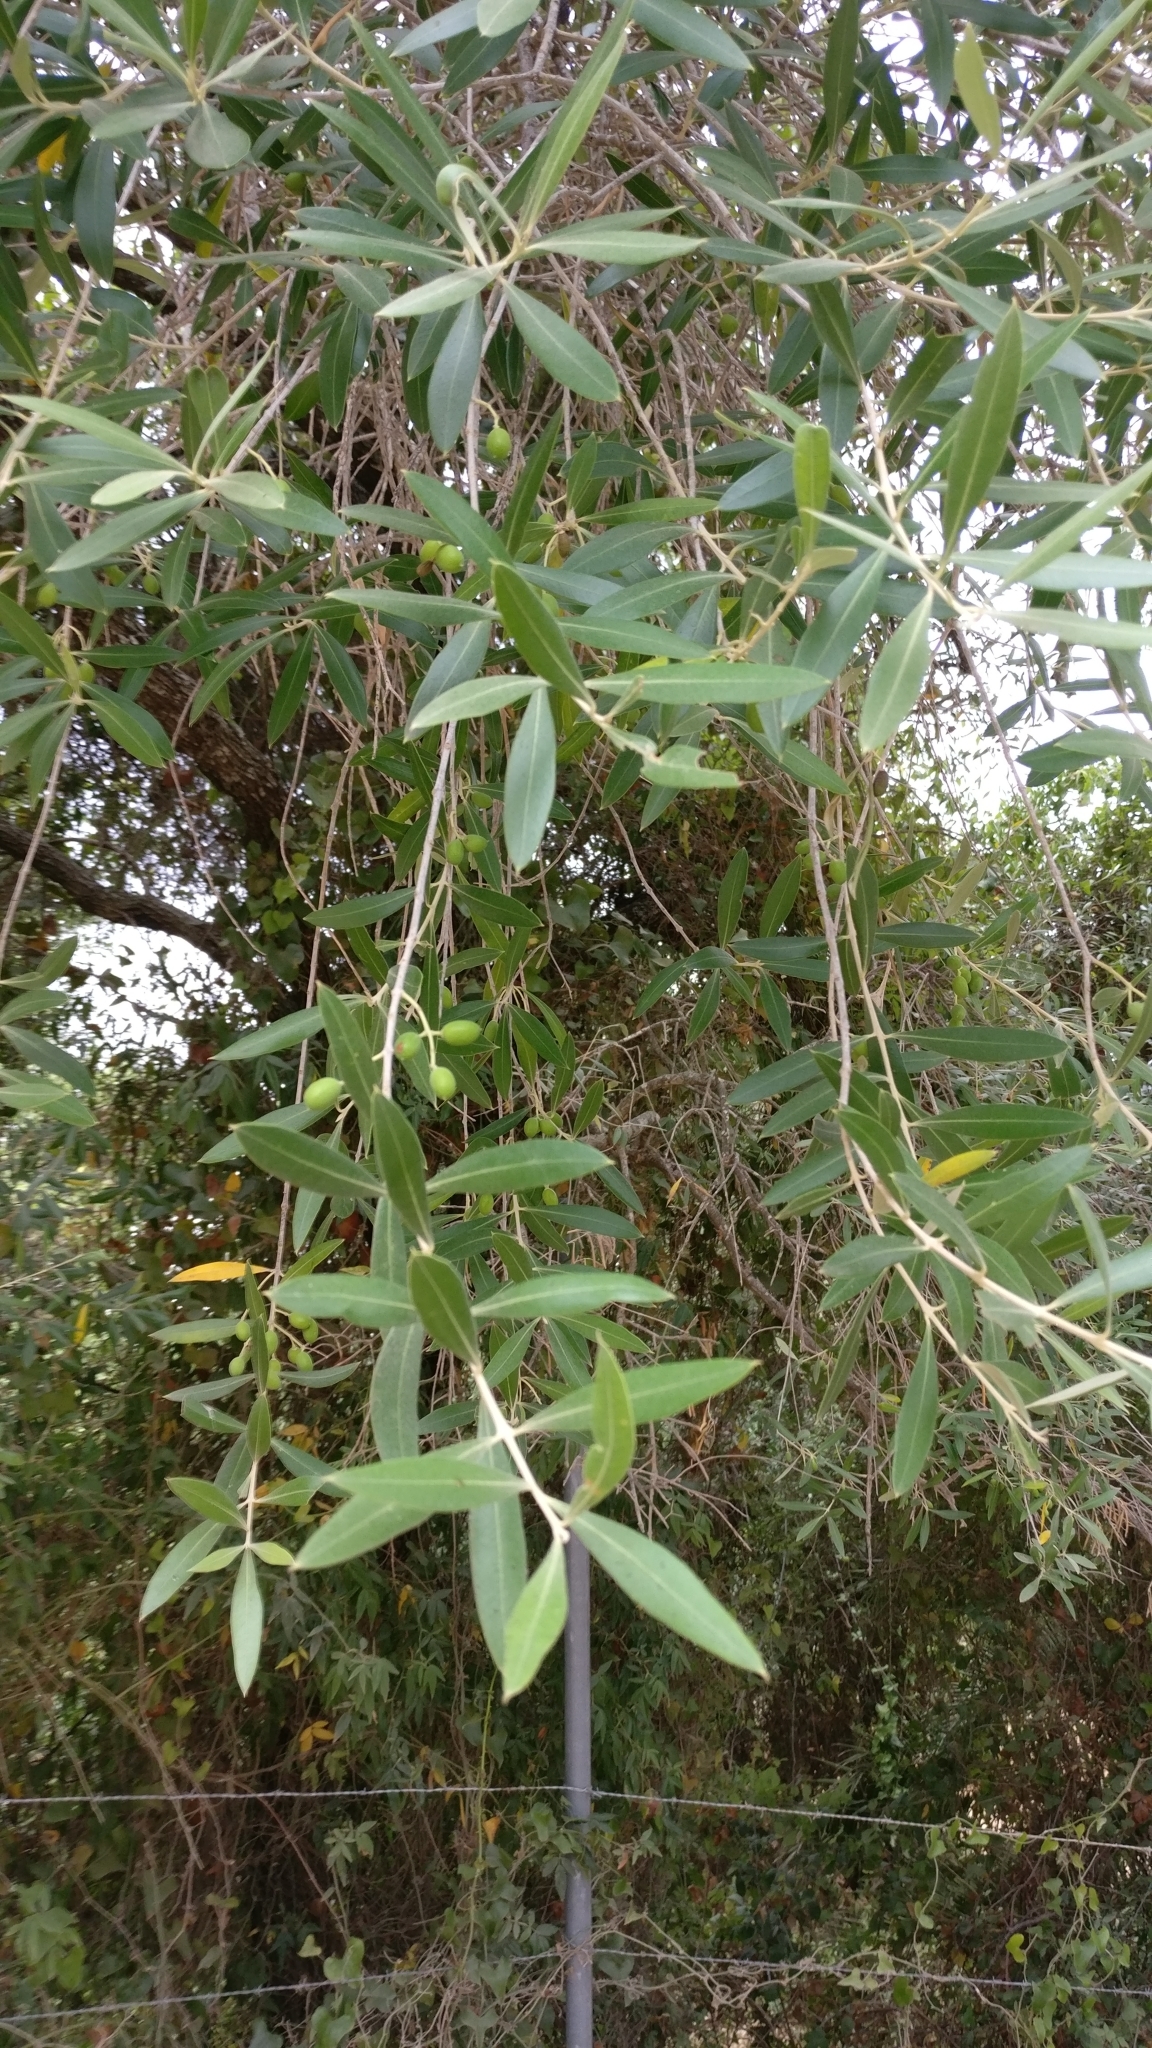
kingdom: Plantae
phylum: Tracheophyta
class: Magnoliopsida
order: Lamiales
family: Oleaceae
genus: Olea
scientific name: Olea europaea
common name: Olive
